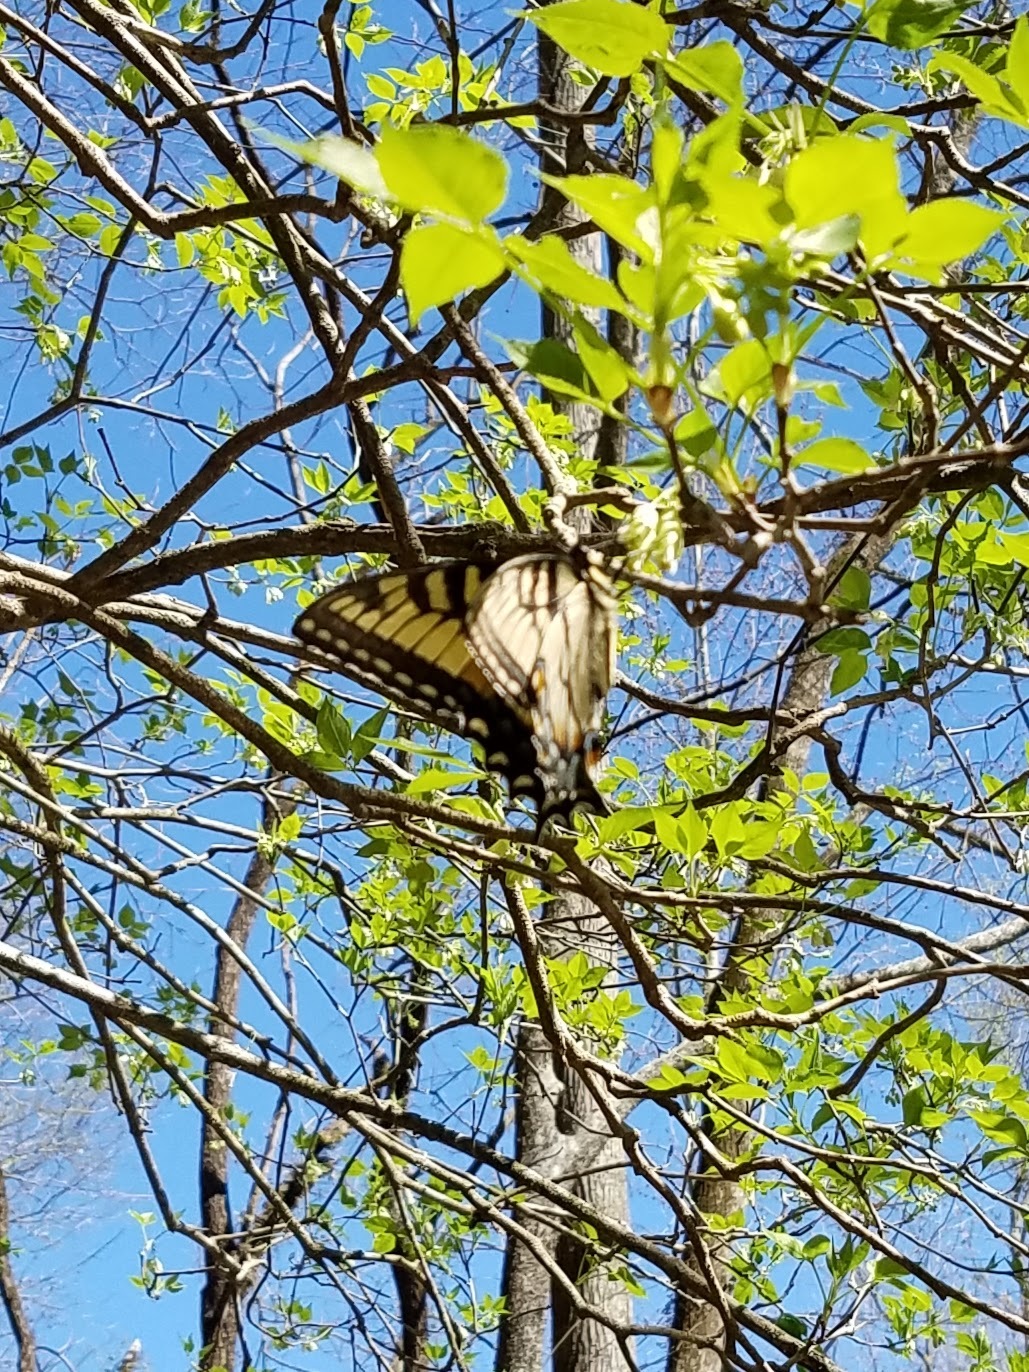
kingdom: Animalia
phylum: Arthropoda
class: Insecta
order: Lepidoptera
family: Papilionidae
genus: Papilio
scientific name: Papilio glaucus
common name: Tiger swallowtail
